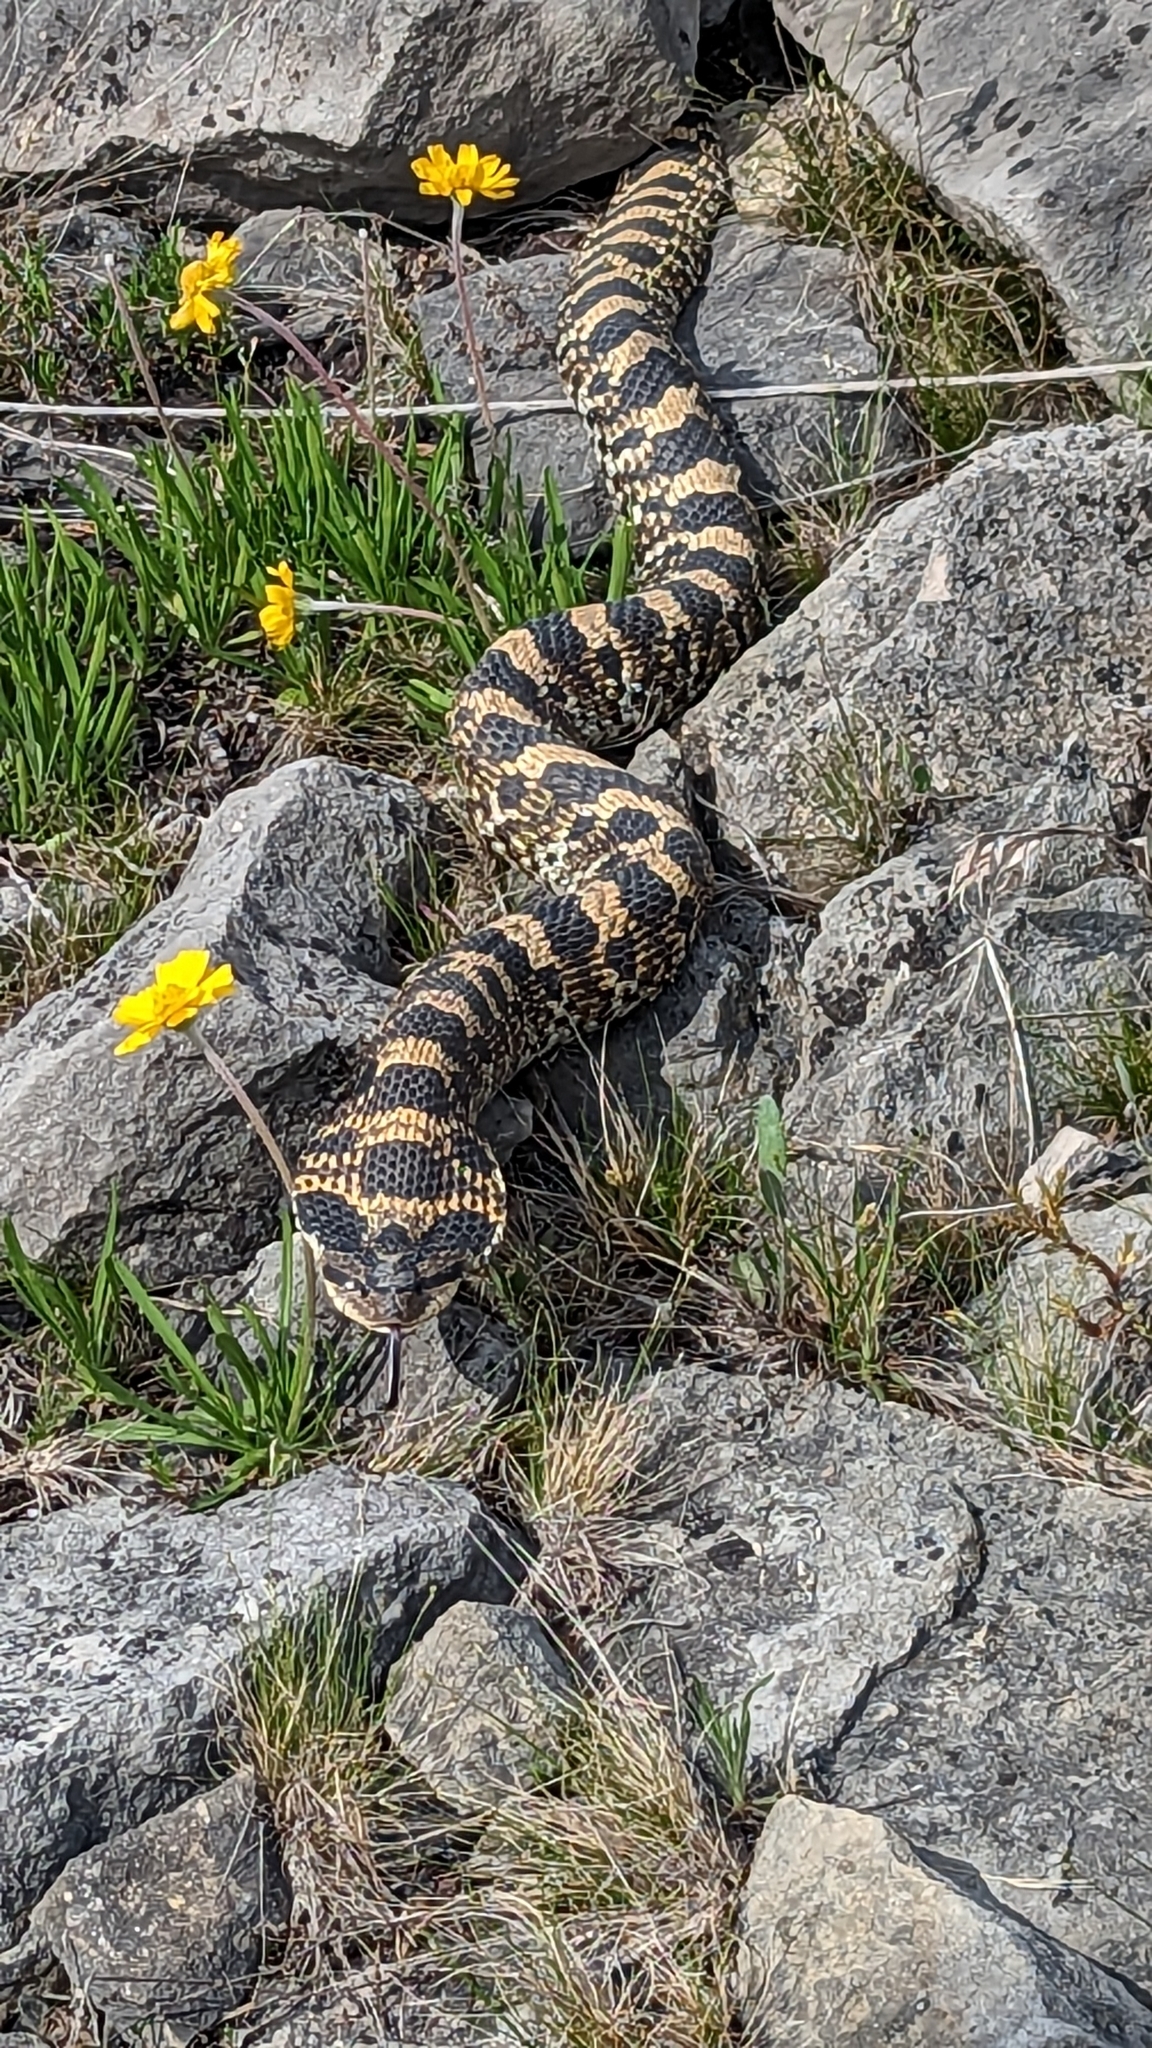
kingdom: Animalia
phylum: Chordata
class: Squamata
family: Colubridae
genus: Heterodon
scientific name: Heterodon platirhinos
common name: Eastern hognose snake
